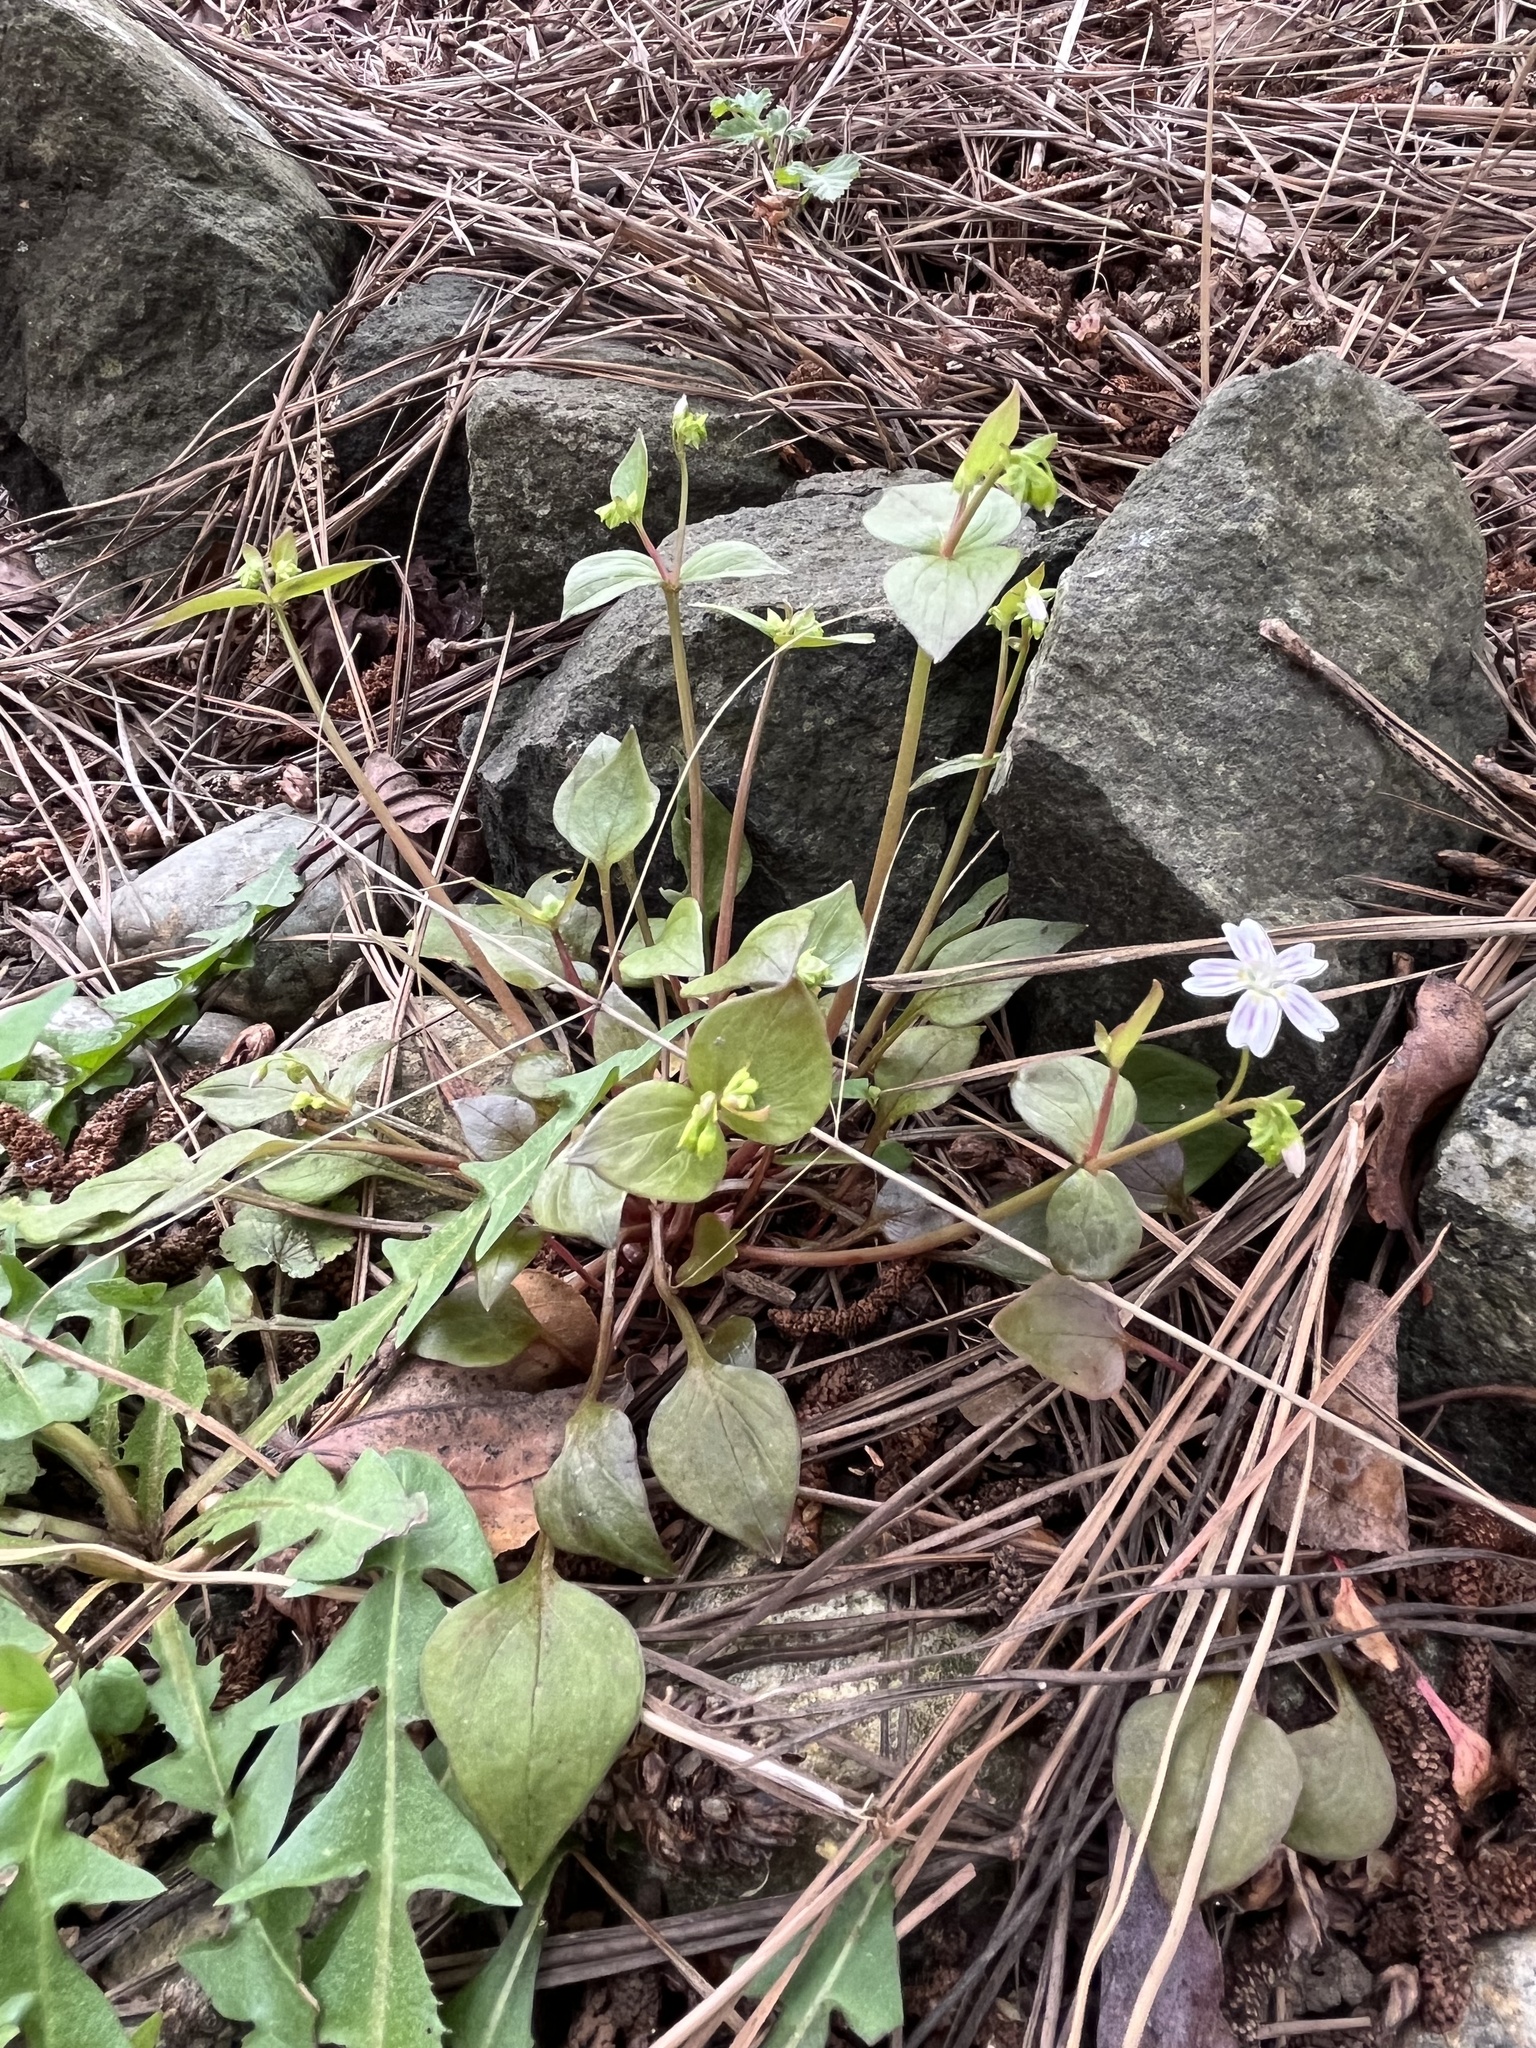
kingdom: Plantae
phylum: Tracheophyta
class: Magnoliopsida
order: Caryophyllales
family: Montiaceae
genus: Claytonia
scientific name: Claytonia sibirica
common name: Pink purslane
